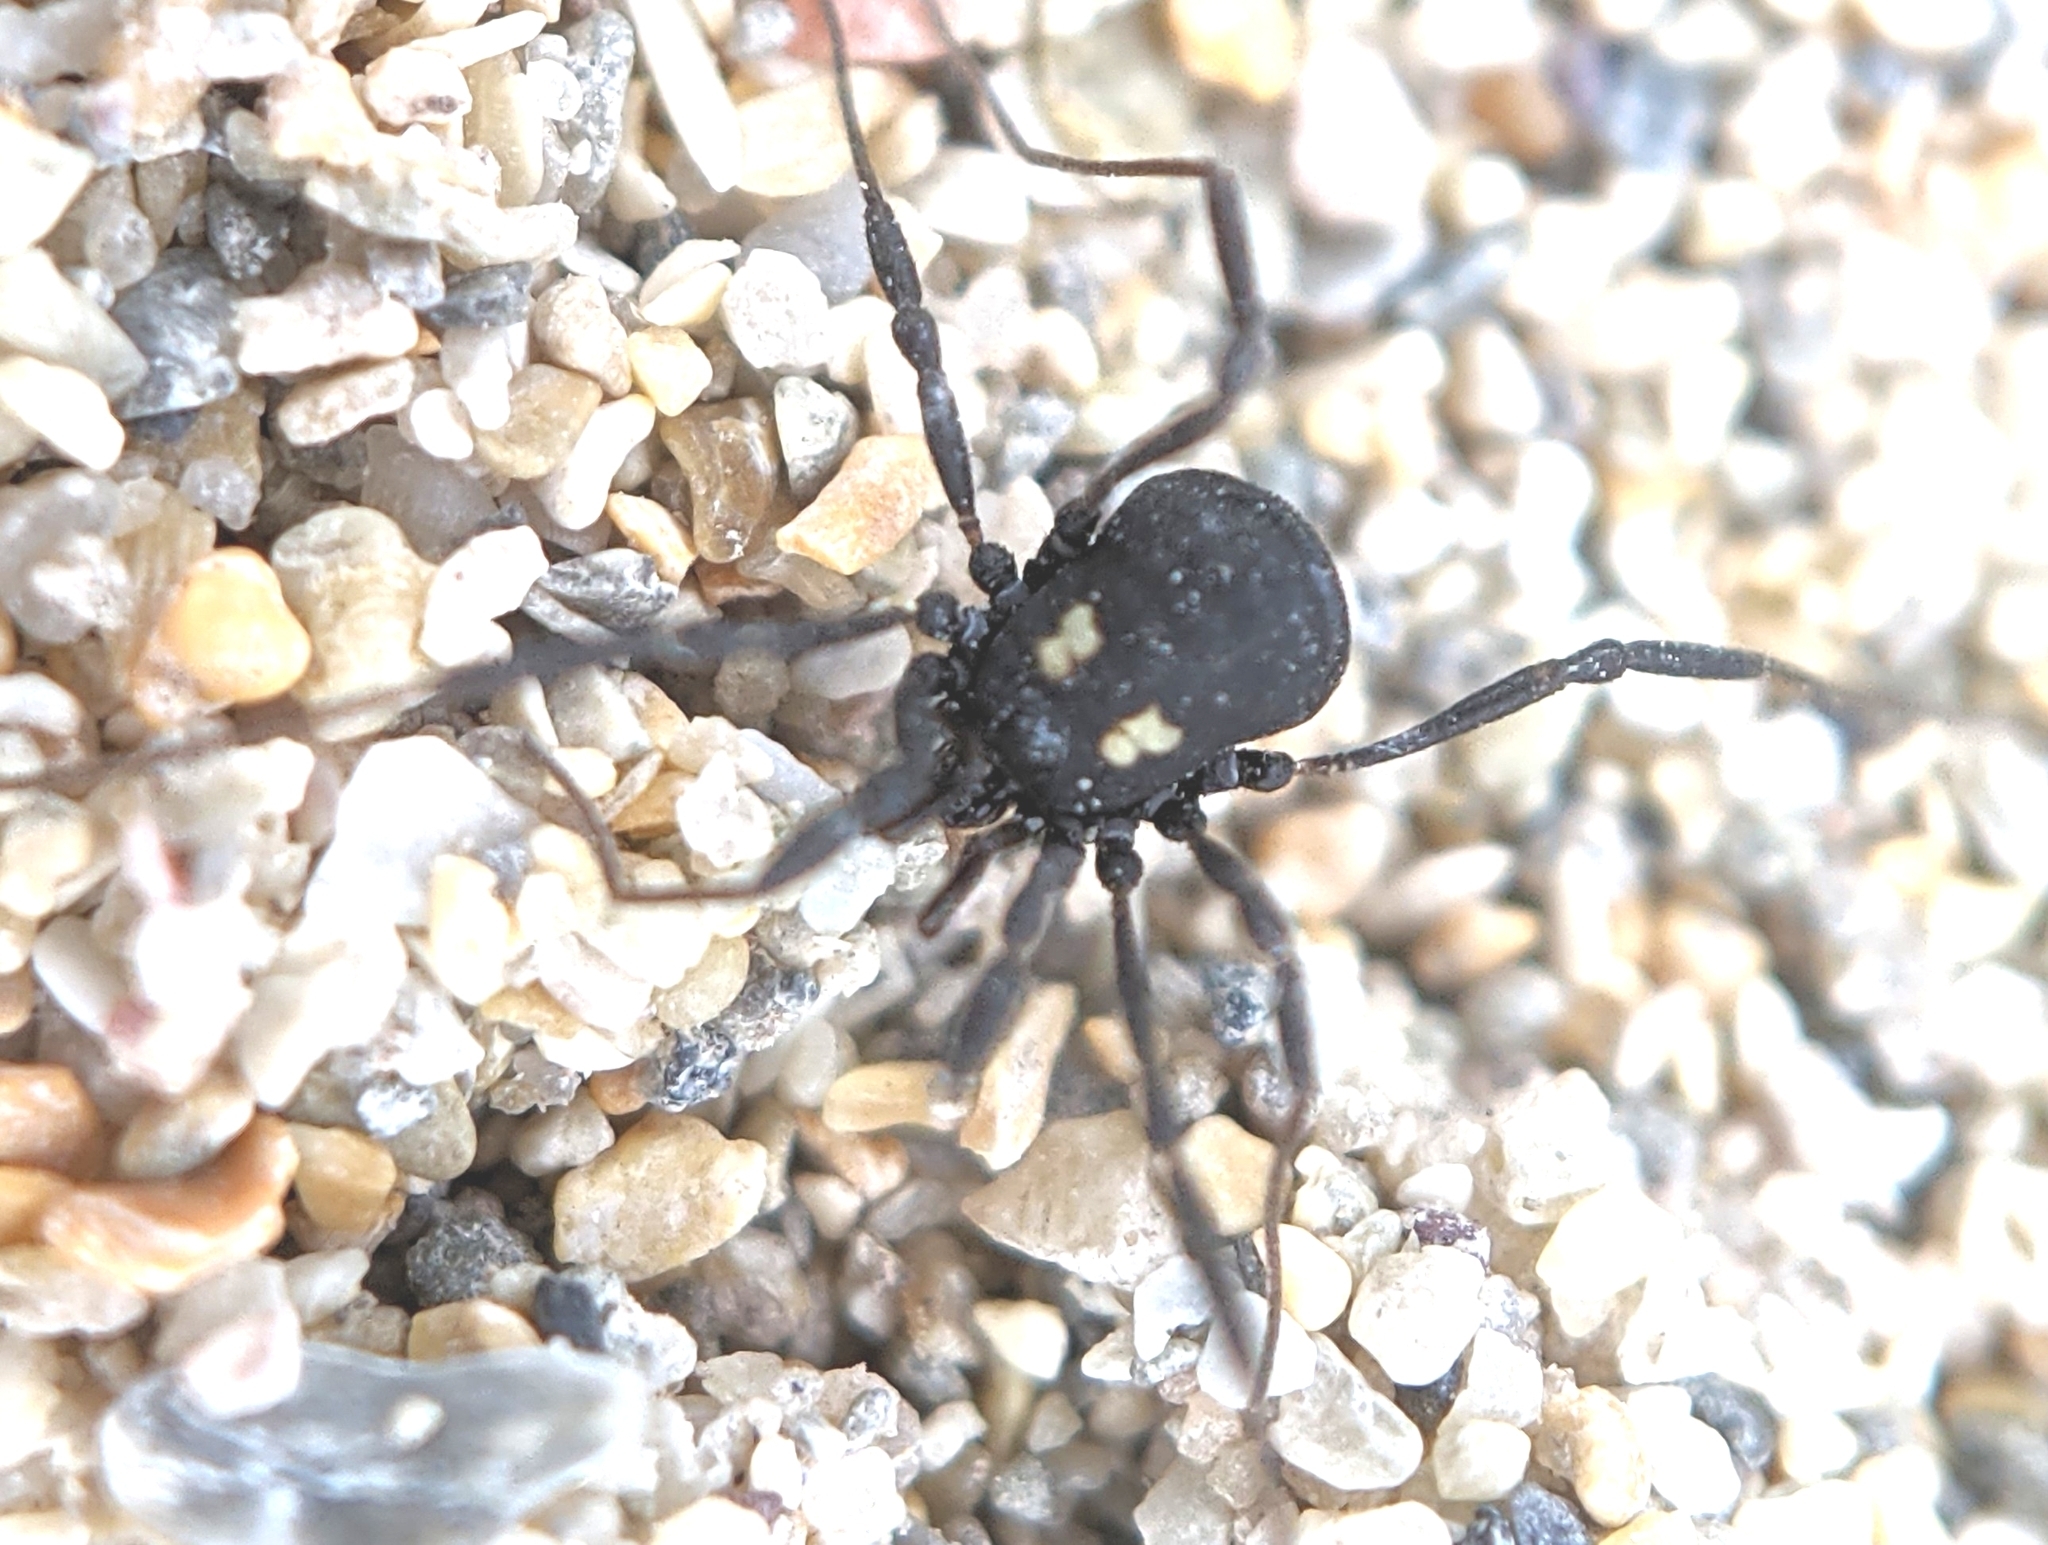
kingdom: Animalia
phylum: Arthropoda
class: Arachnida
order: Opiliones
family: Nemastomatidae
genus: Nemastoma
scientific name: Nemastoma bimaculatum
